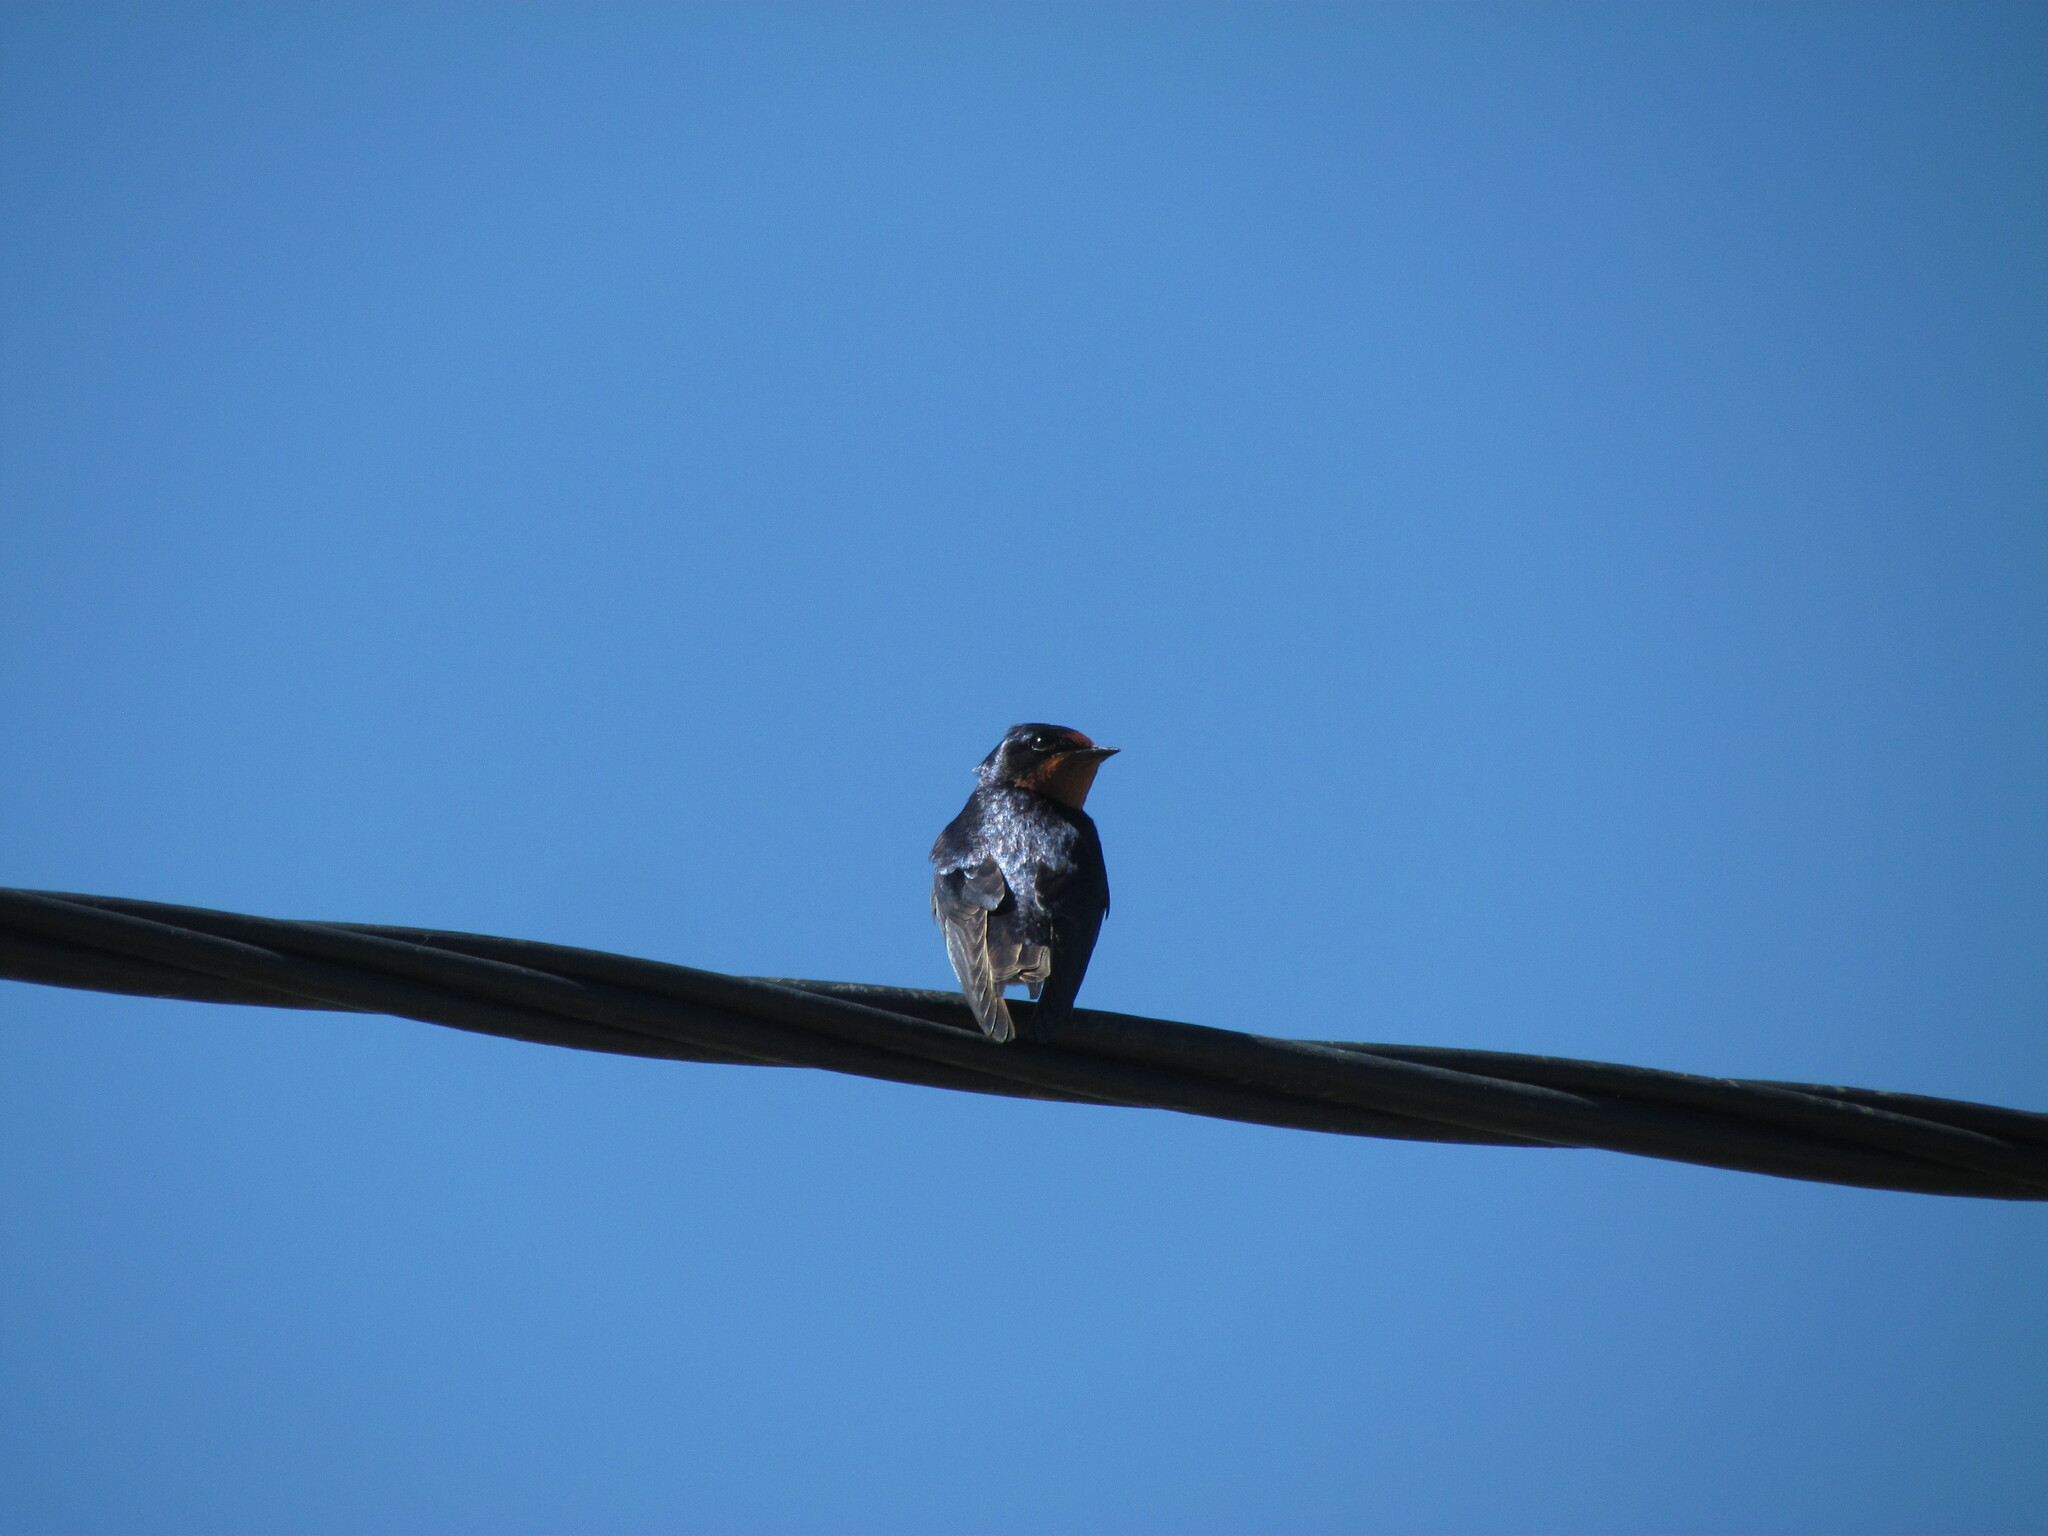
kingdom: Animalia
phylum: Chordata
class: Aves
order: Passeriformes
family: Hirundinidae
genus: Hirundo
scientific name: Hirundo rustica
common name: Barn swallow
